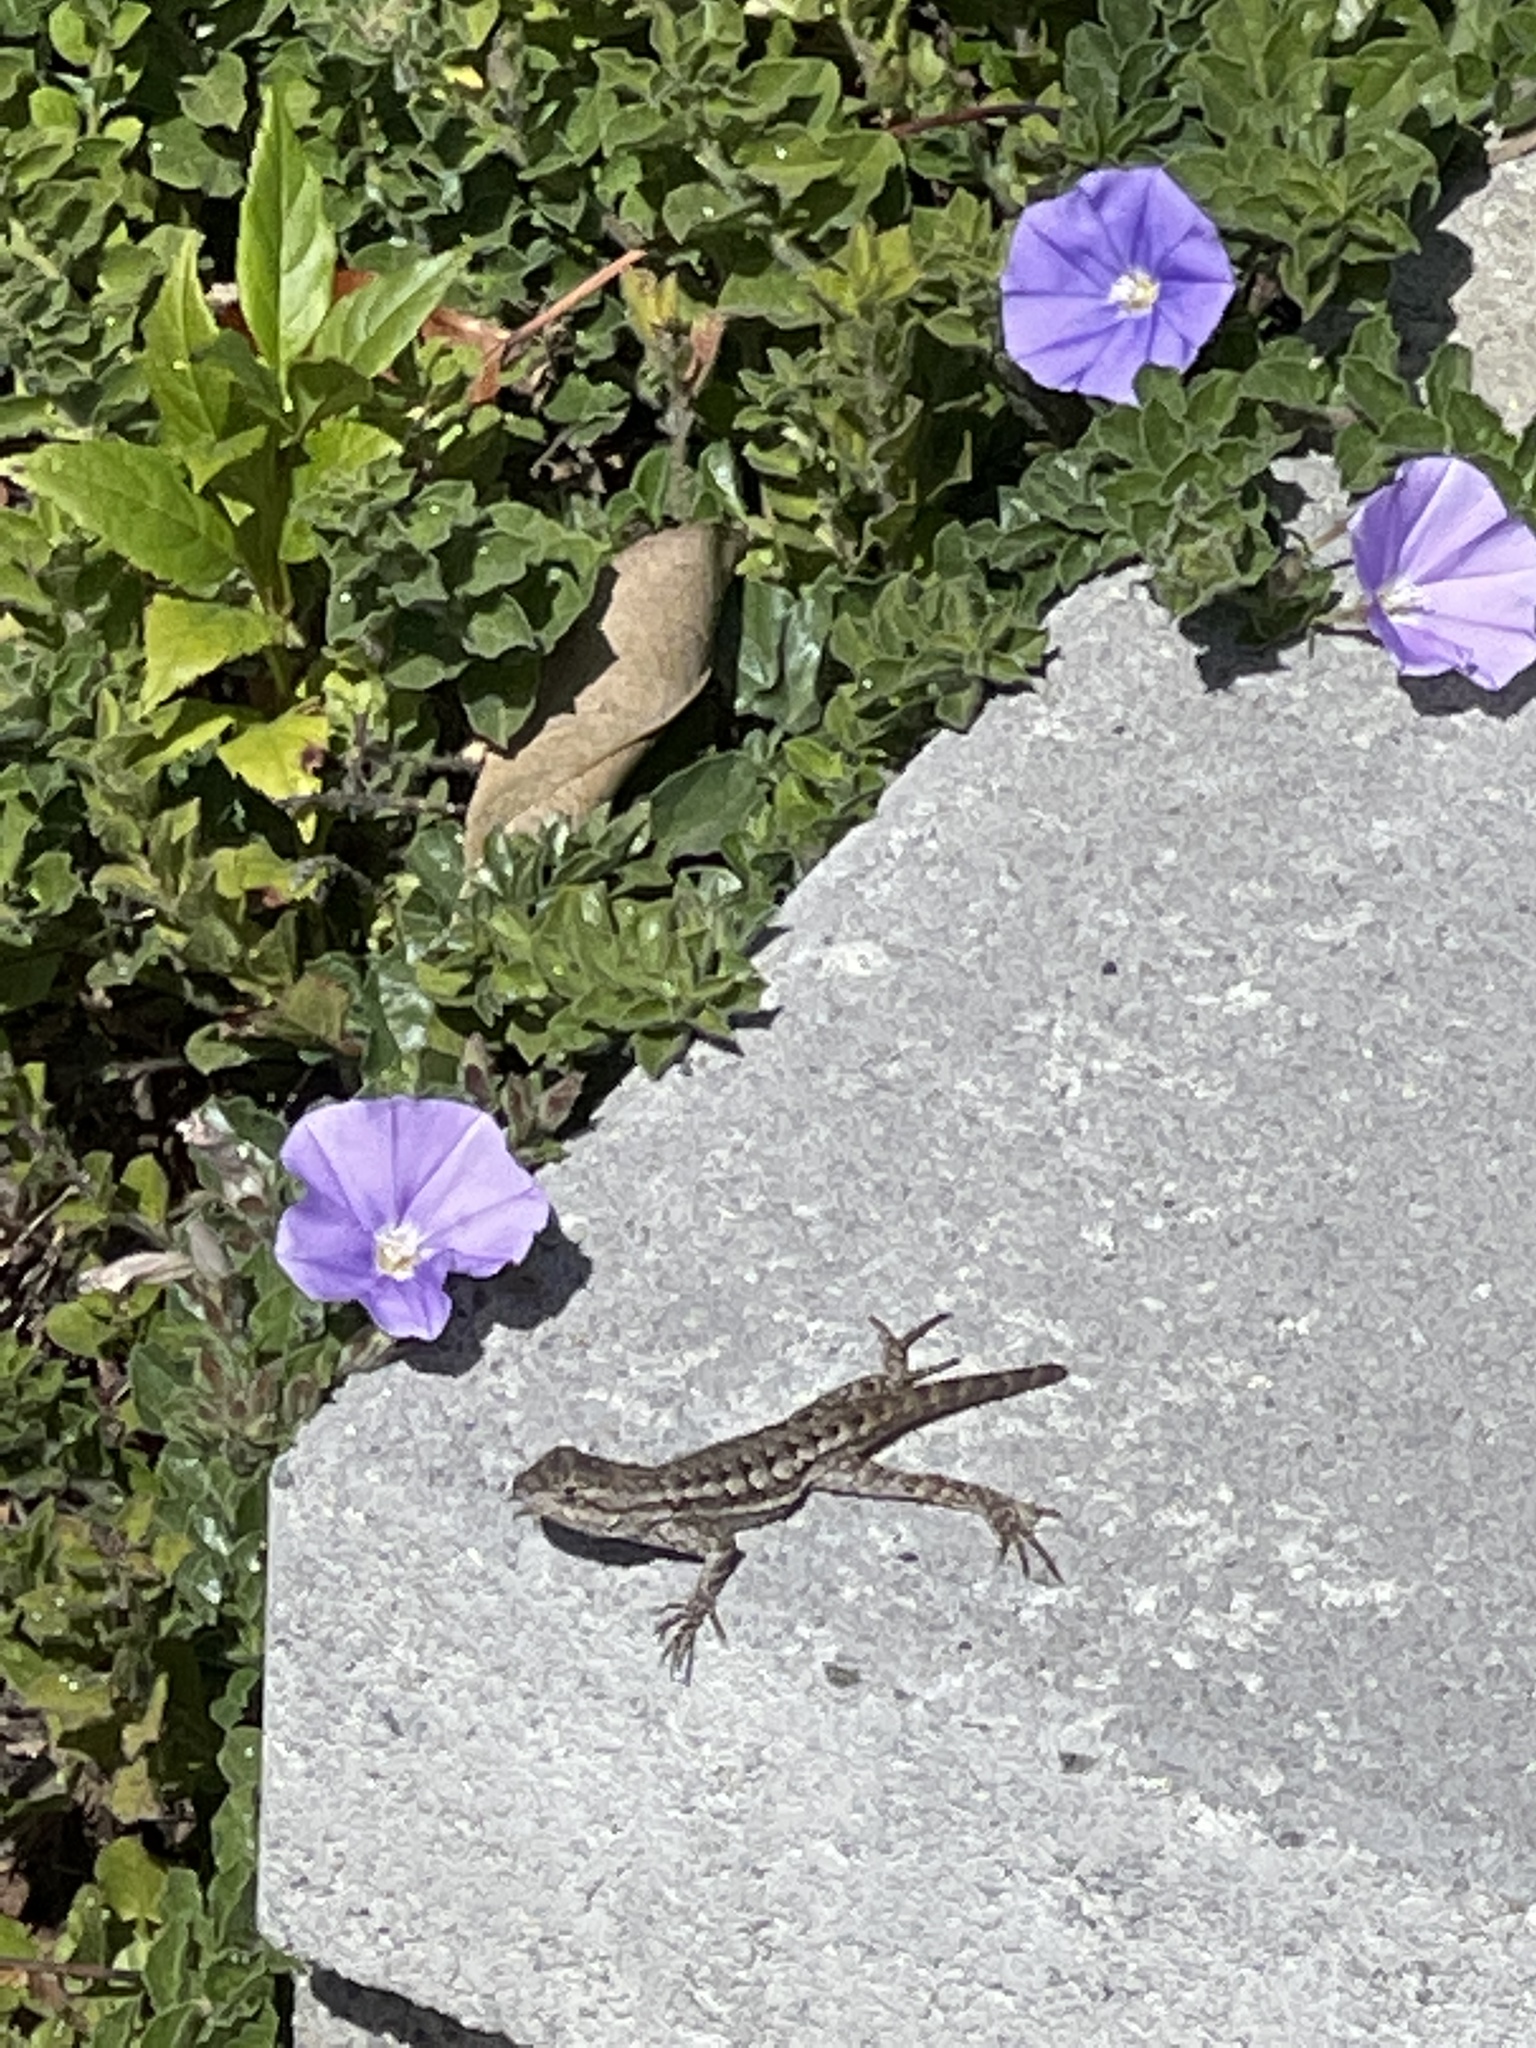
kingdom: Animalia
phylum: Chordata
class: Squamata
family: Phrynosomatidae
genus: Sceloporus
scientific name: Sceloporus occidentalis
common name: Western fence lizard
